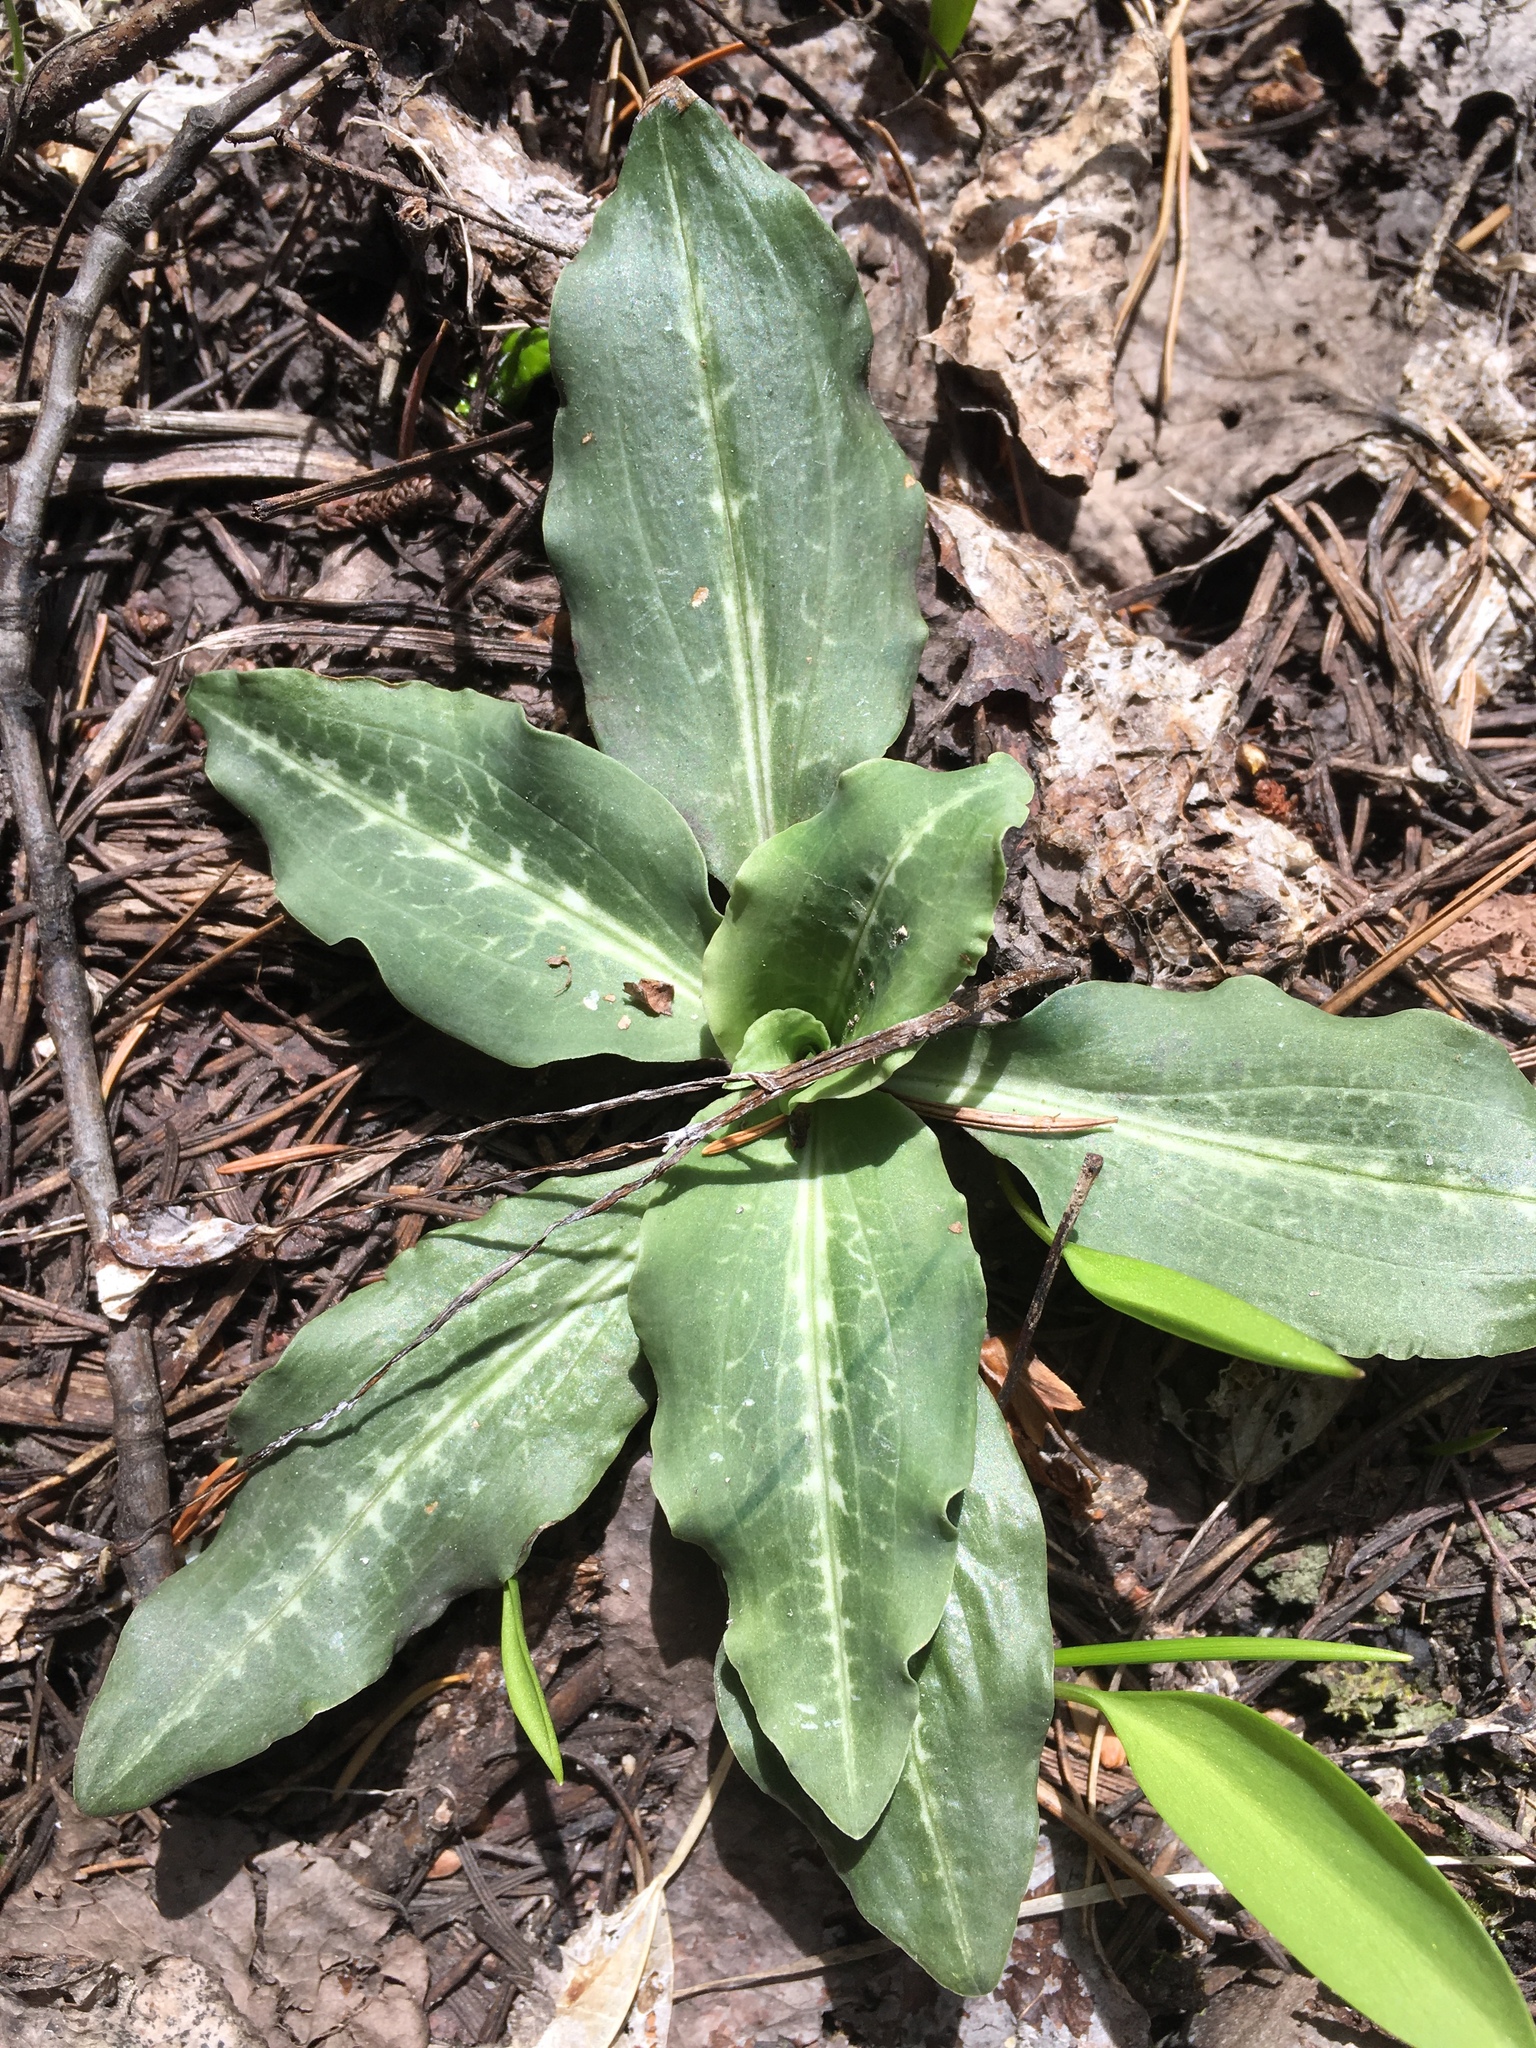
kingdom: Plantae
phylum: Tracheophyta
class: Liliopsida
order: Asparagales
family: Orchidaceae
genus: Goodyera
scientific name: Goodyera oblongifolia
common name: Giant rattlesnake-plantain
